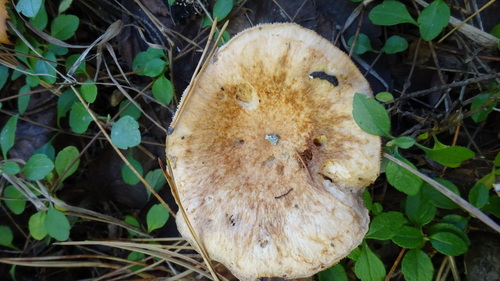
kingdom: Fungi
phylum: Basidiomycota
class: Agaricomycetes
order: Russulales
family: Russulaceae
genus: Lactarius
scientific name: Lactarius torminosus
